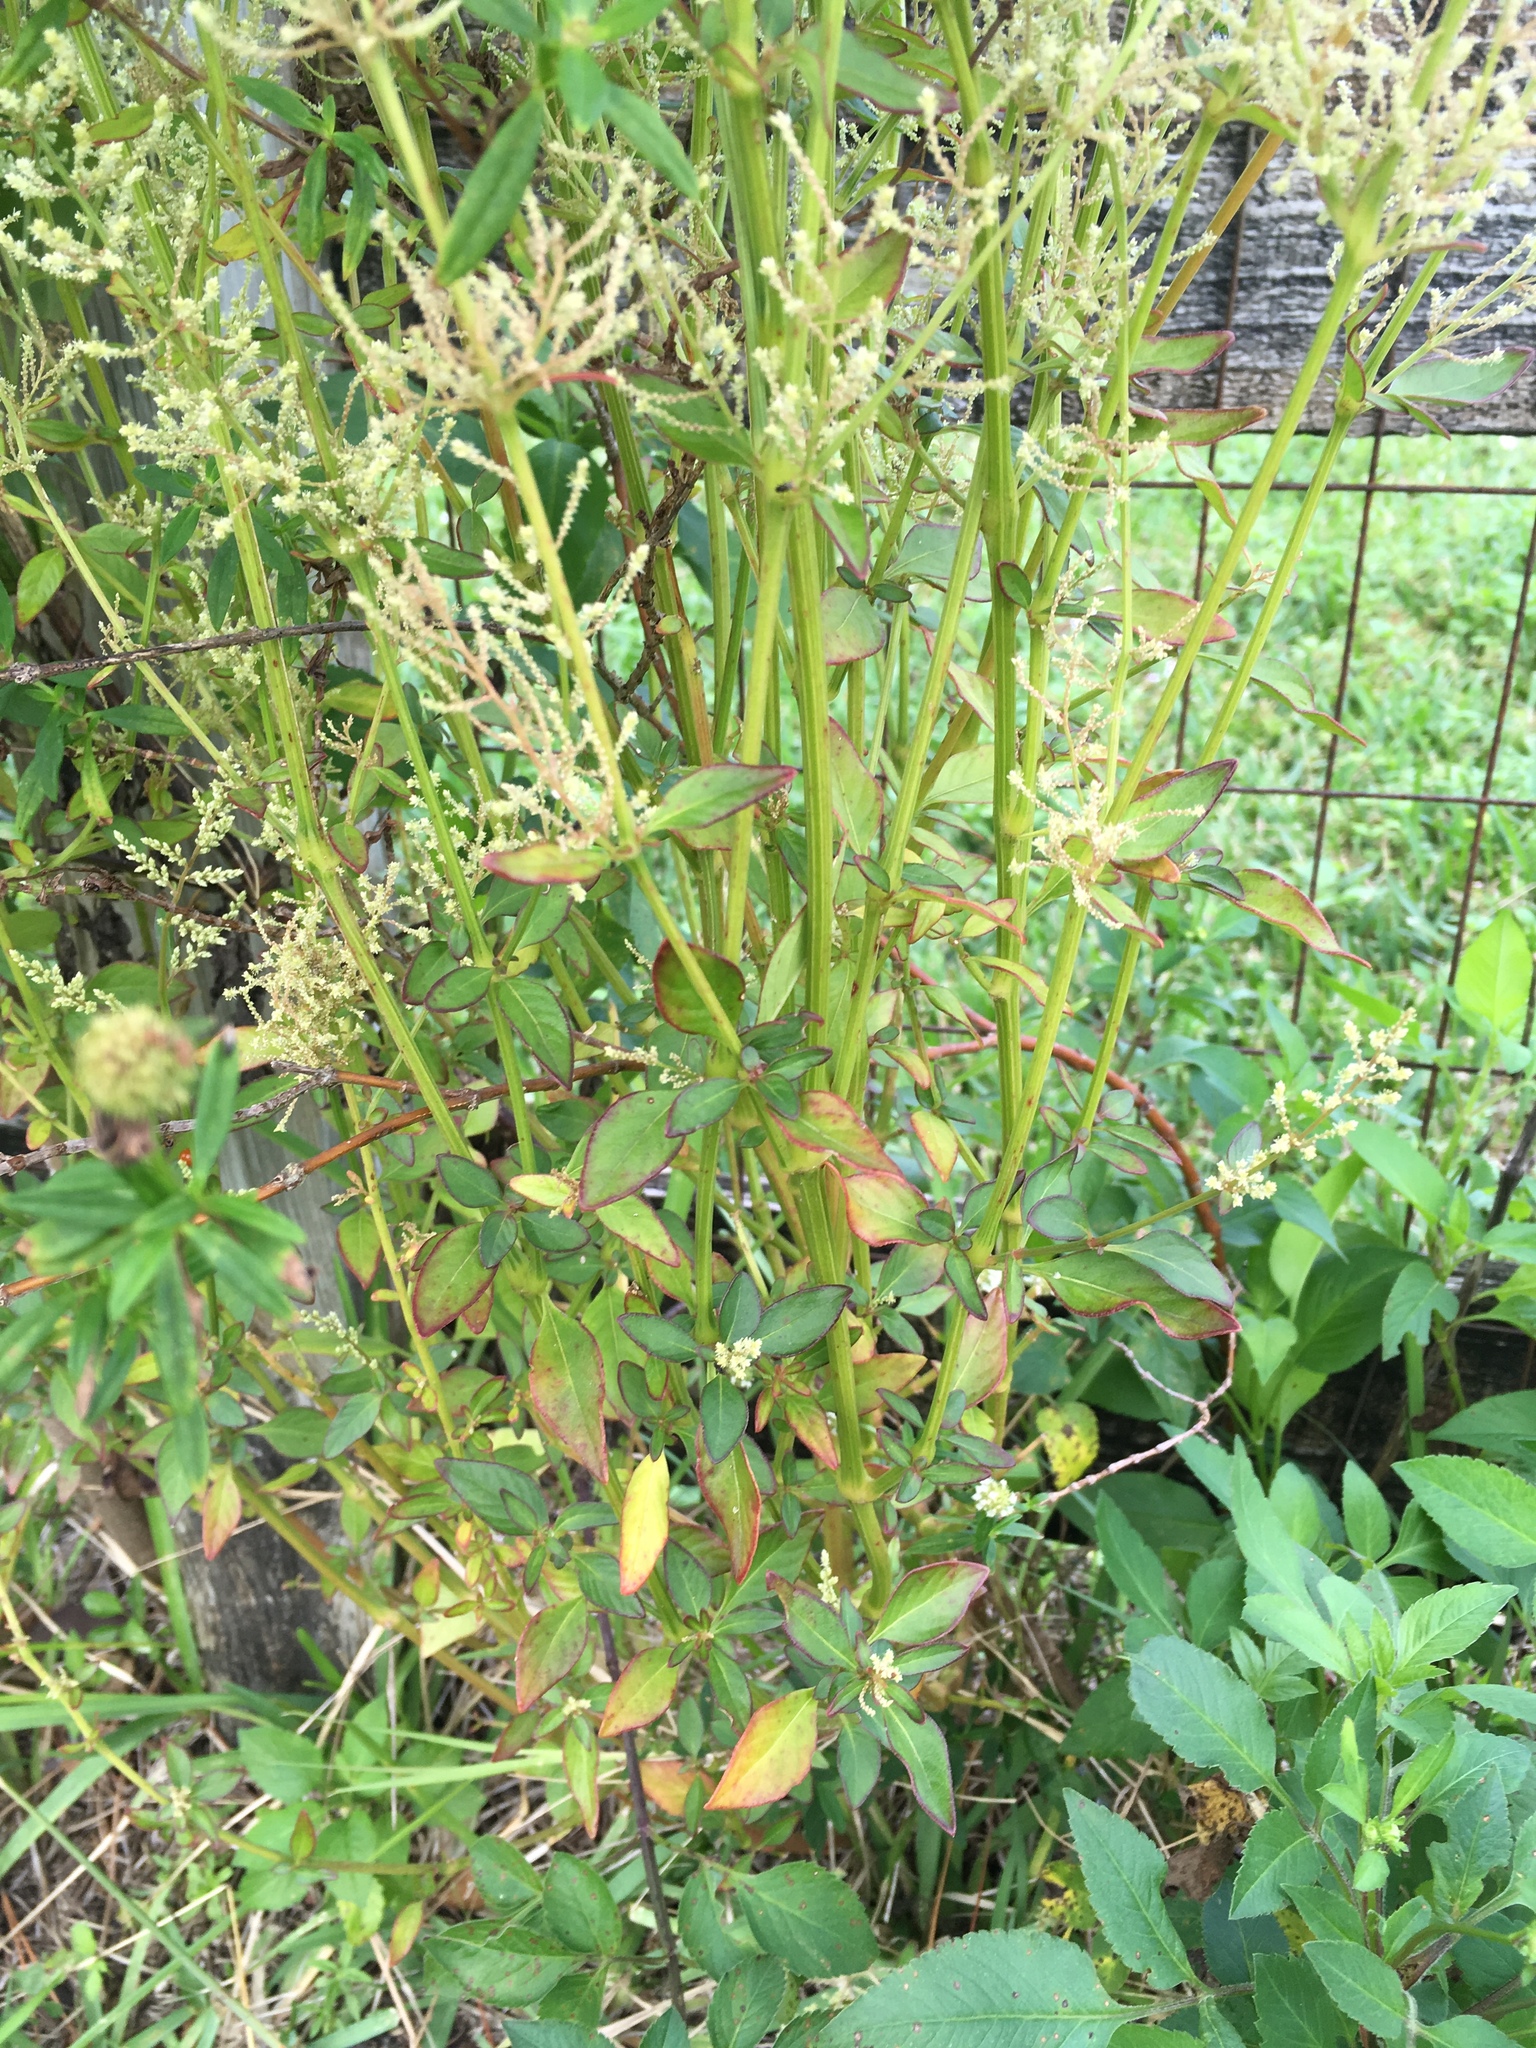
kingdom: Plantae
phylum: Tracheophyta
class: Magnoliopsida
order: Caryophyllales
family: Amaranthaceae
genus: Iresine
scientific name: Iresine diffusa
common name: Juba's-bush
